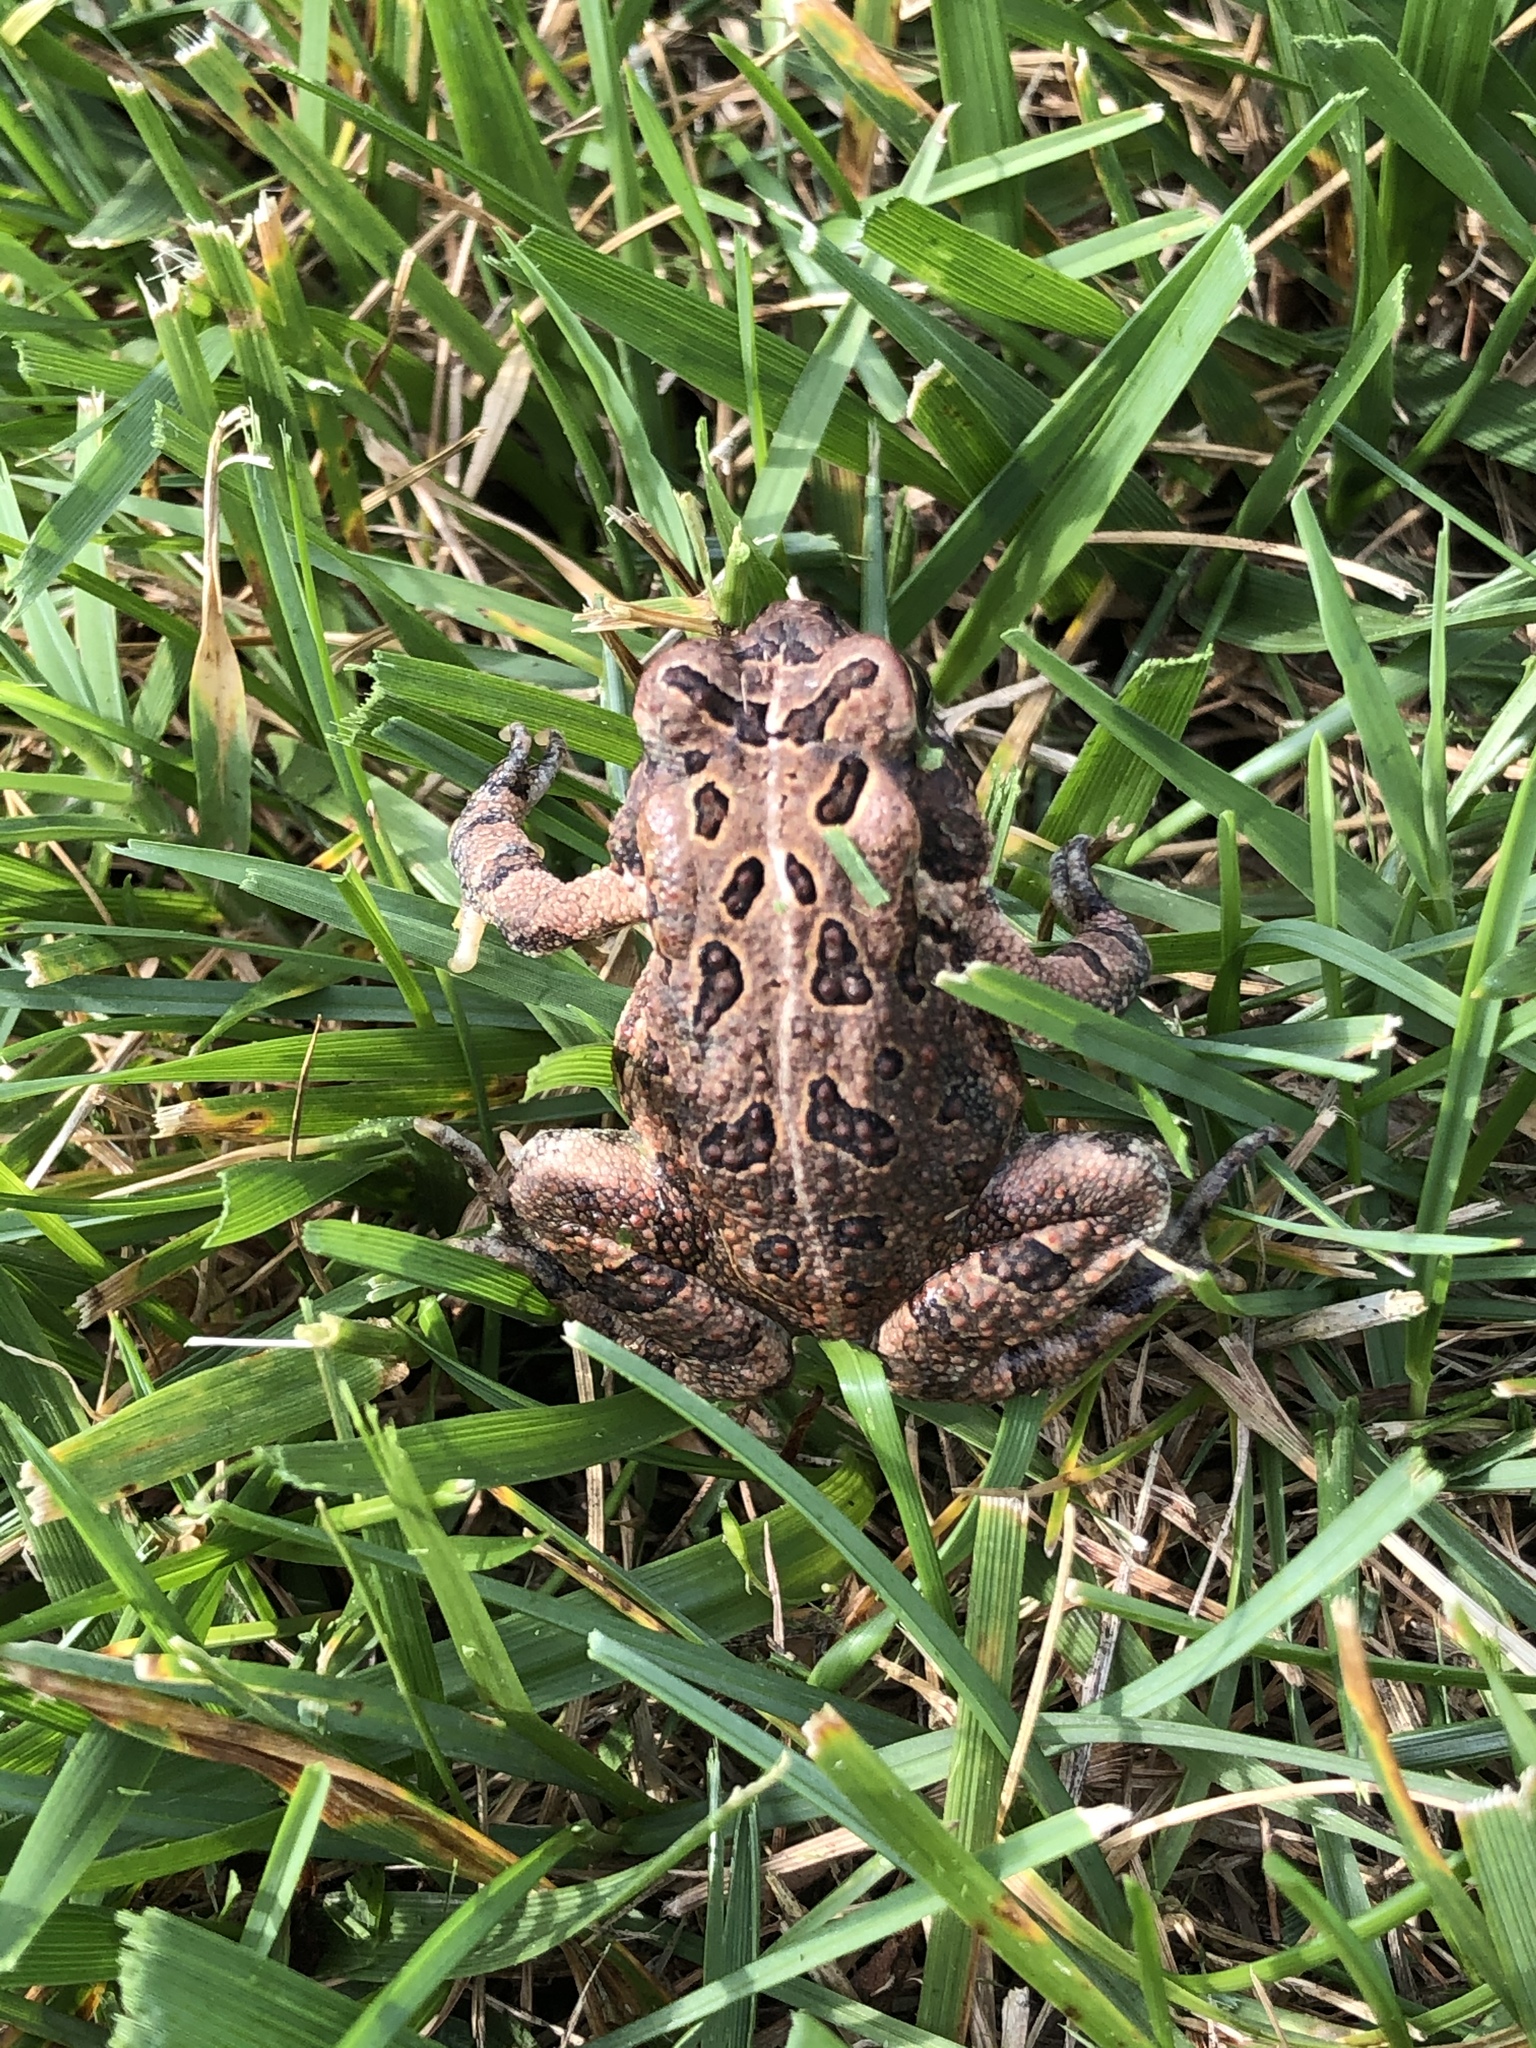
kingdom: Animalia
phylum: Chordata
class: Amphibia
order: Anura
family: Bufonidae
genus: Anaxyrus
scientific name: Anaxyrus fowleri
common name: Fowler's toad
